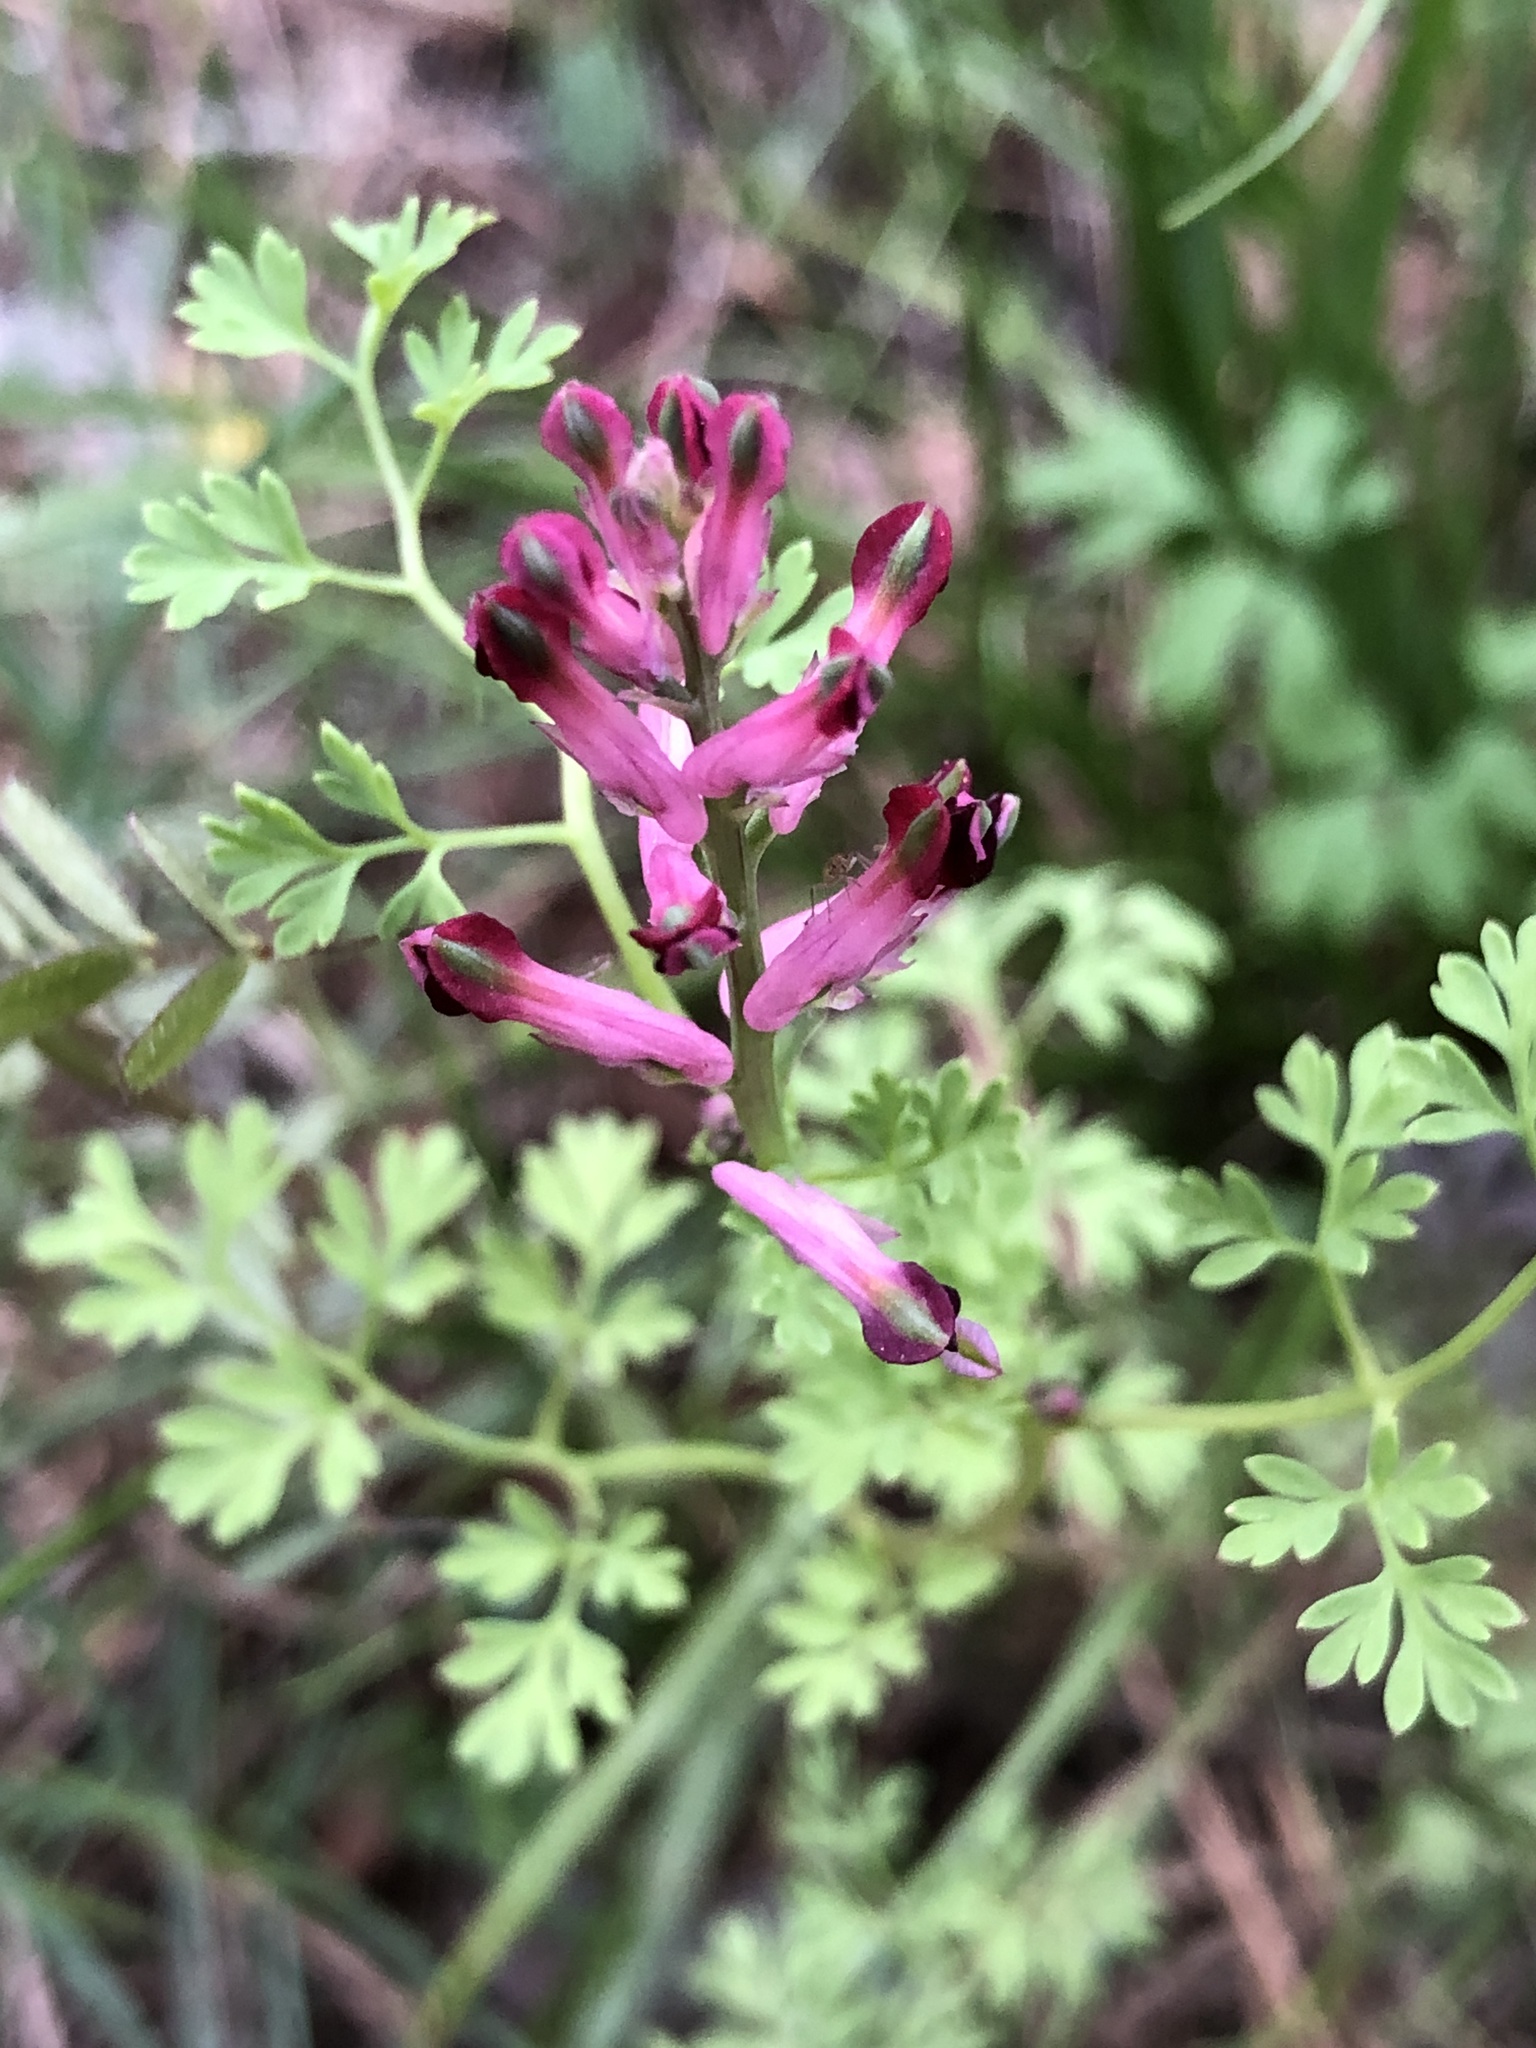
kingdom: Plantae
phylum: Tracheophyta
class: Magnoliopsida
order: Ranunculales
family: Papaveraceae
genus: Fumaria
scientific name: Fumaria officinalis
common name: Common fumitory
